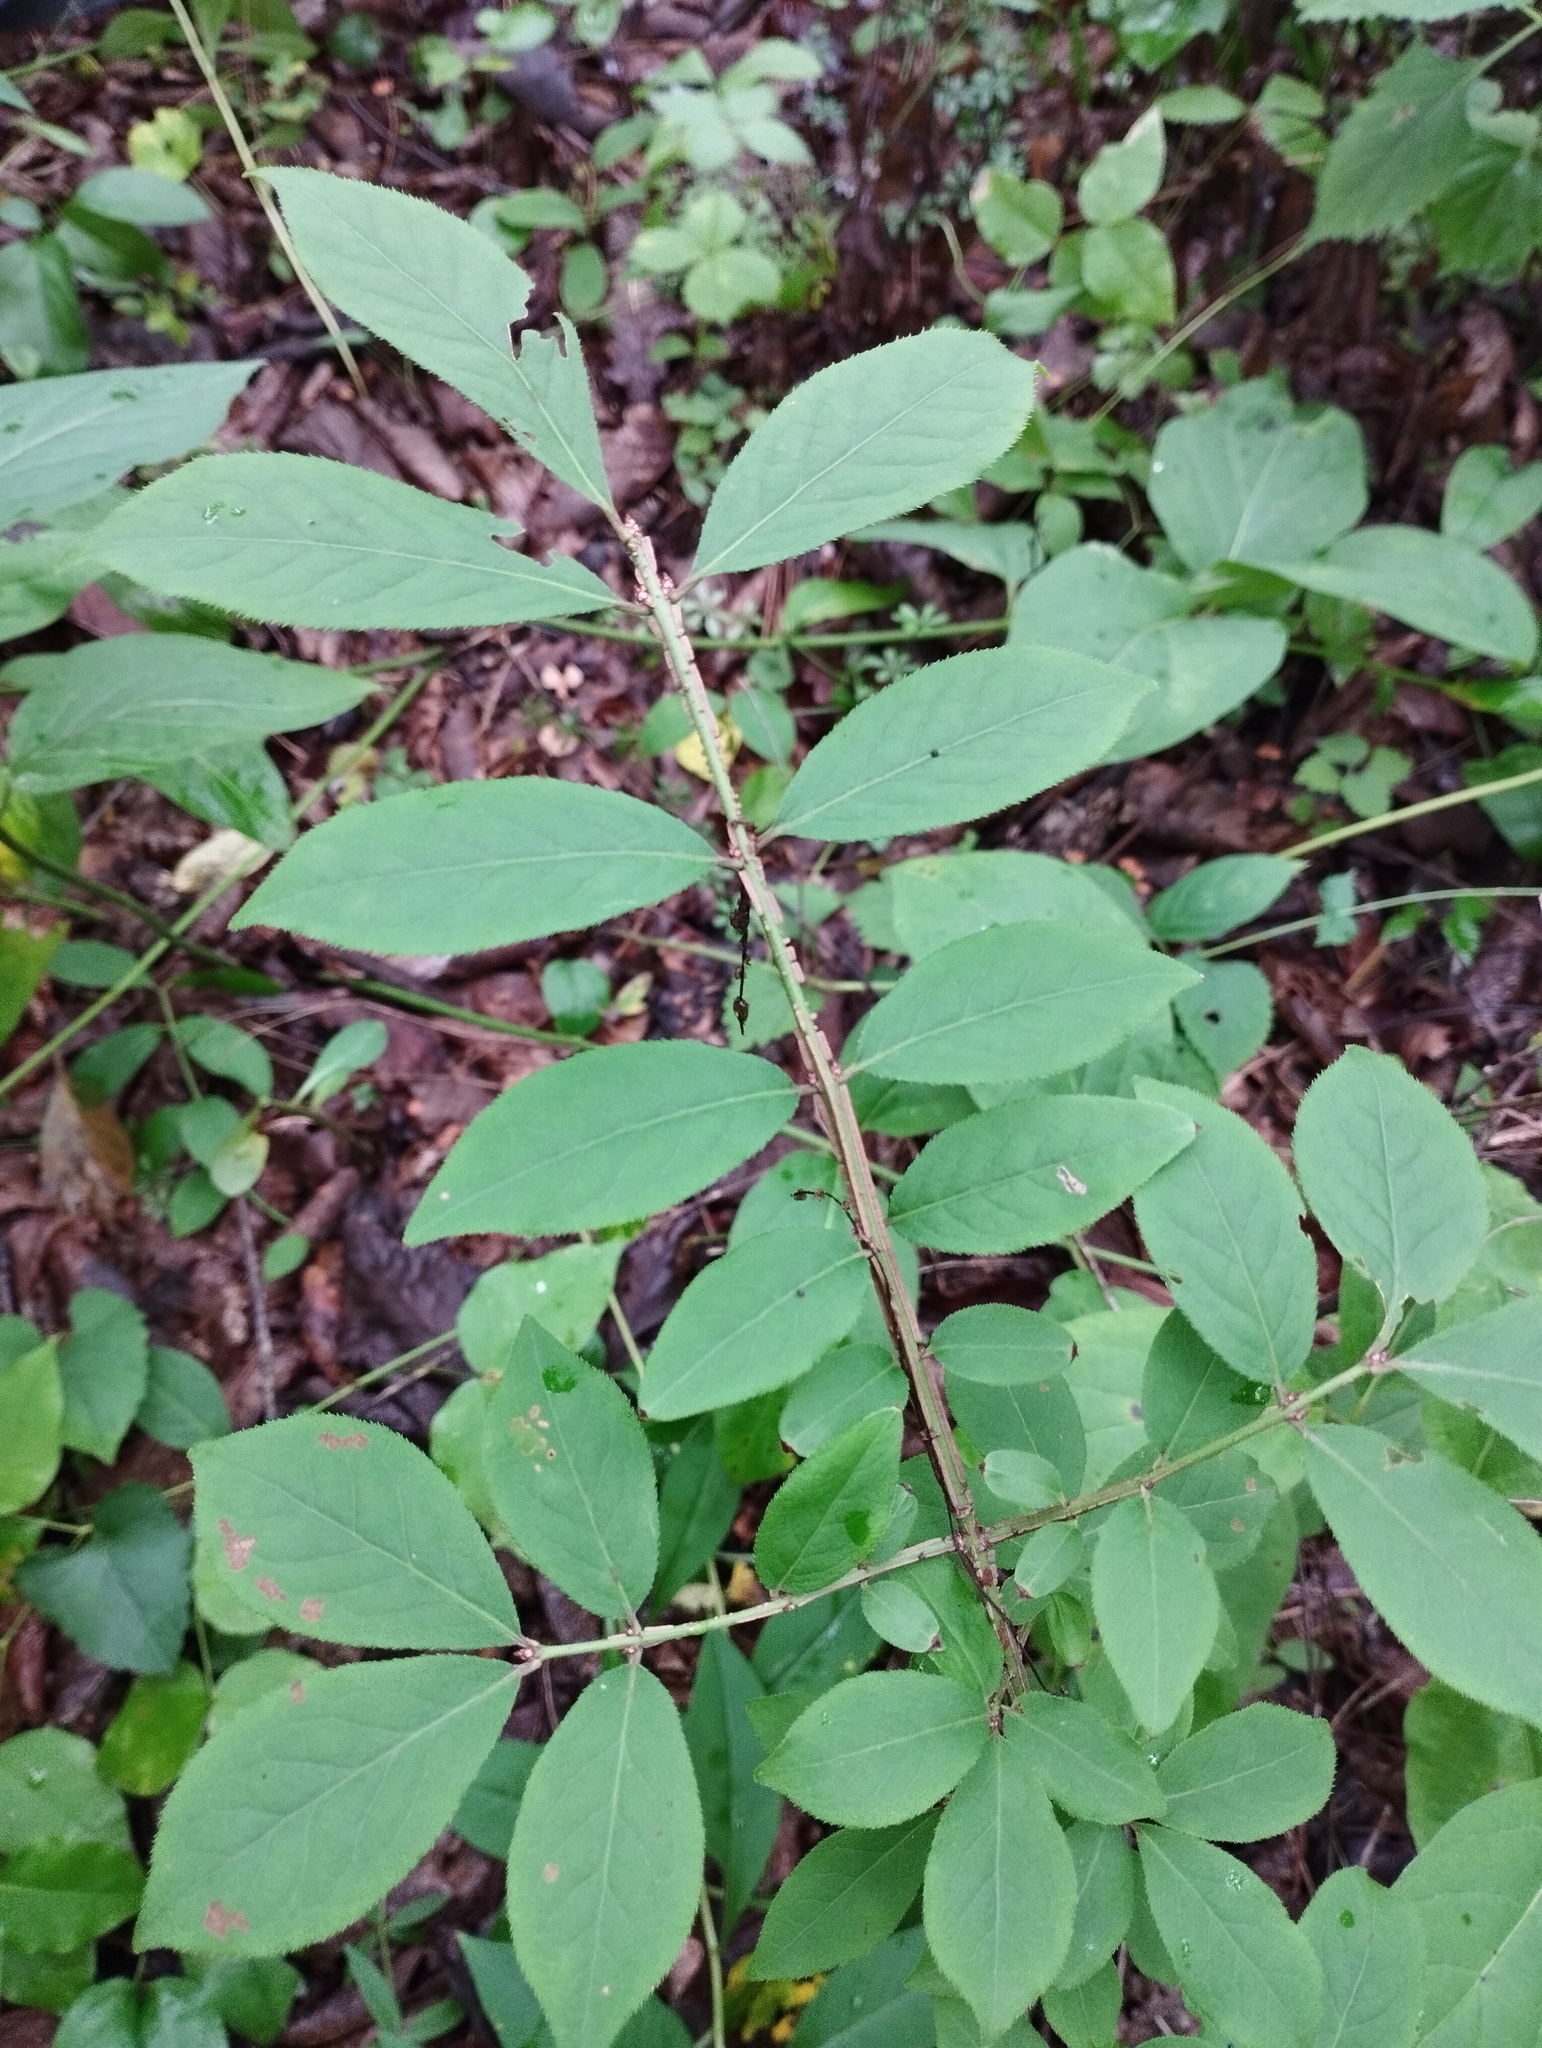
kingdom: Plantae
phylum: Tracheophyta
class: Magnoliopsida
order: Celastrales
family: Celastraceae
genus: Euonymus
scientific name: Euonymus alatus
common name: Winged euonymus
